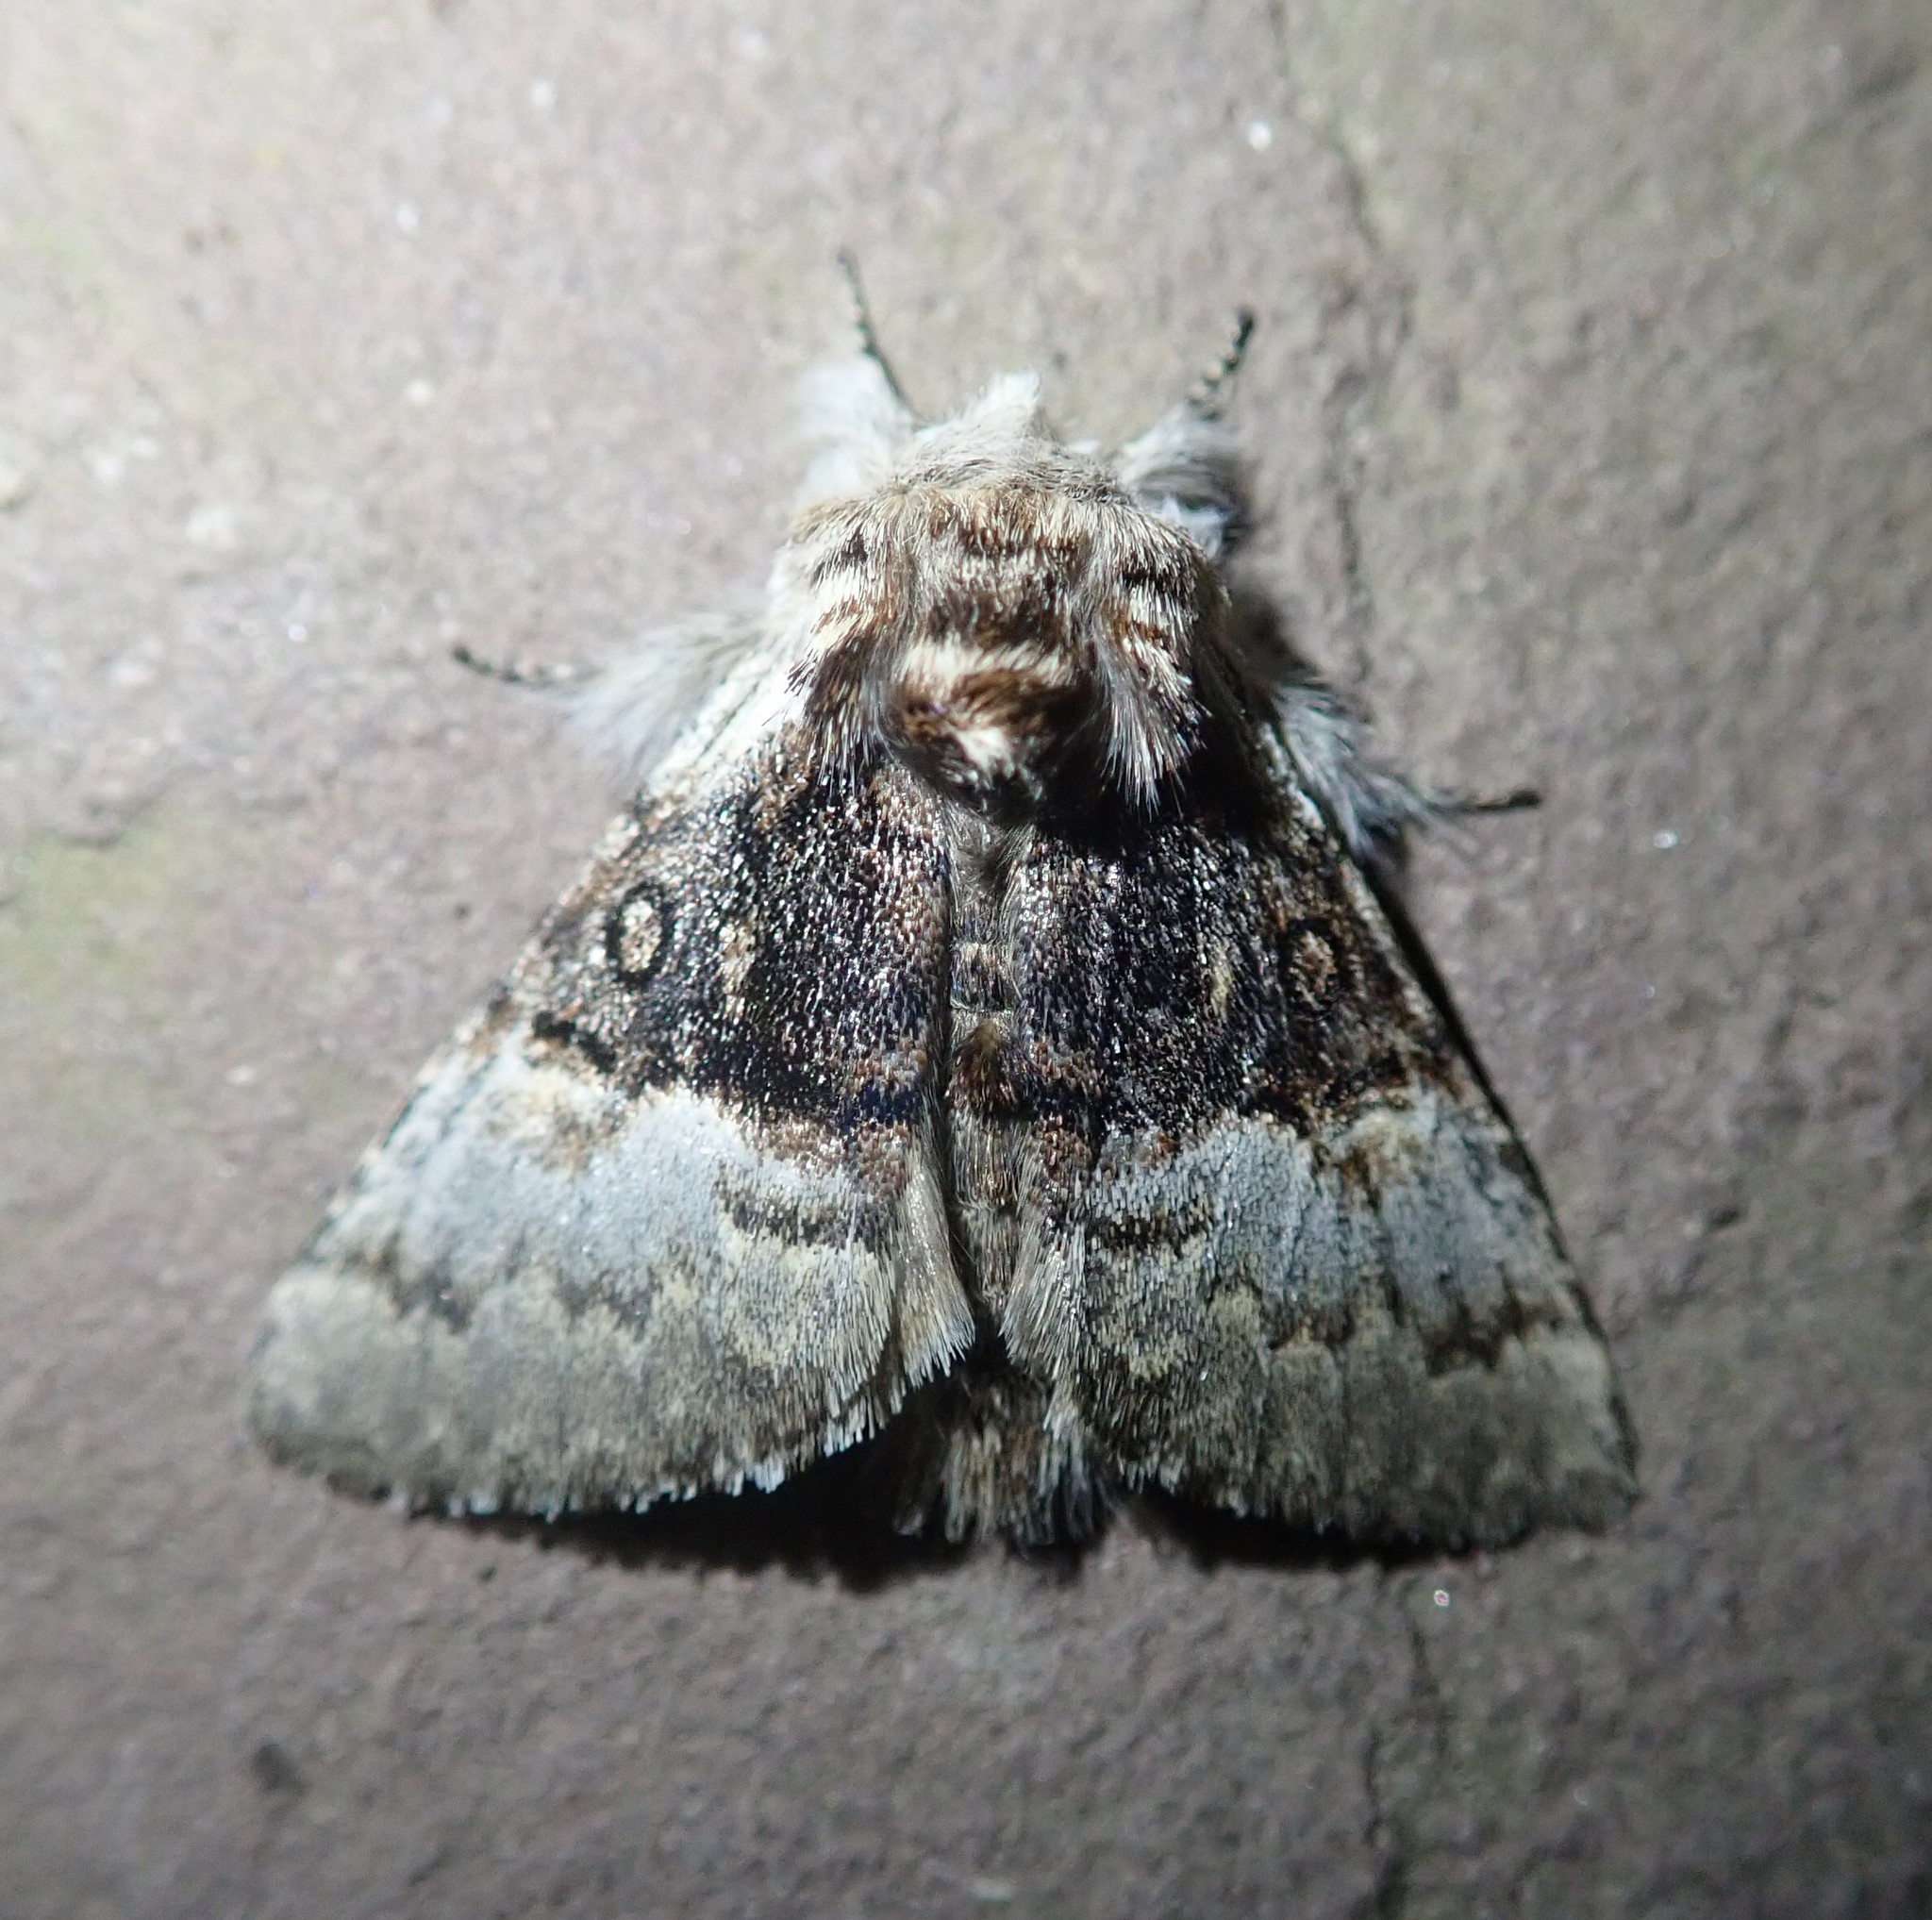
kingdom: Animalia
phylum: Arthropoda
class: Insecta
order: Lepidoptera
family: Noctuidae
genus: Colocasia
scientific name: Colocasia coryli
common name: Nut-tree tussock
